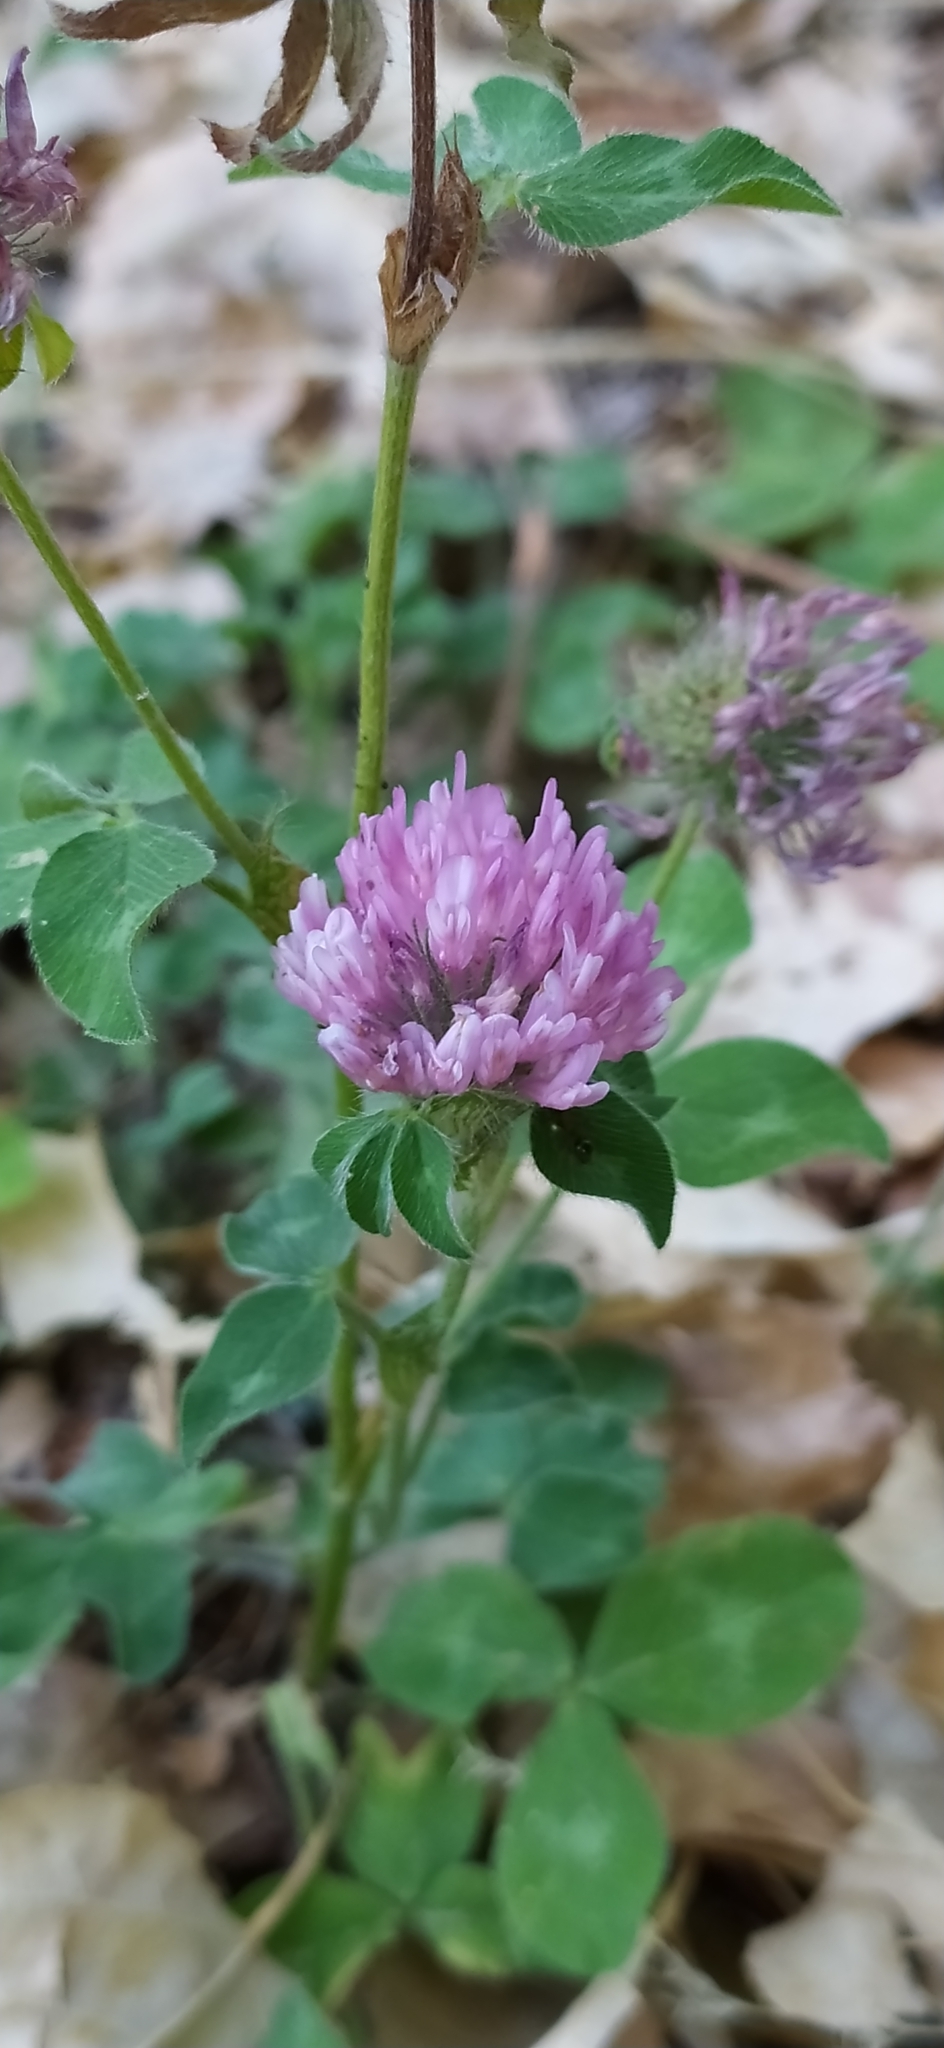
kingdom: Plantae
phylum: Tracheophyta
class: Magnoliopsida
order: Fabales
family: Fabaceae
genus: Trifolium
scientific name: Trifolium pratense
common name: Red clover
